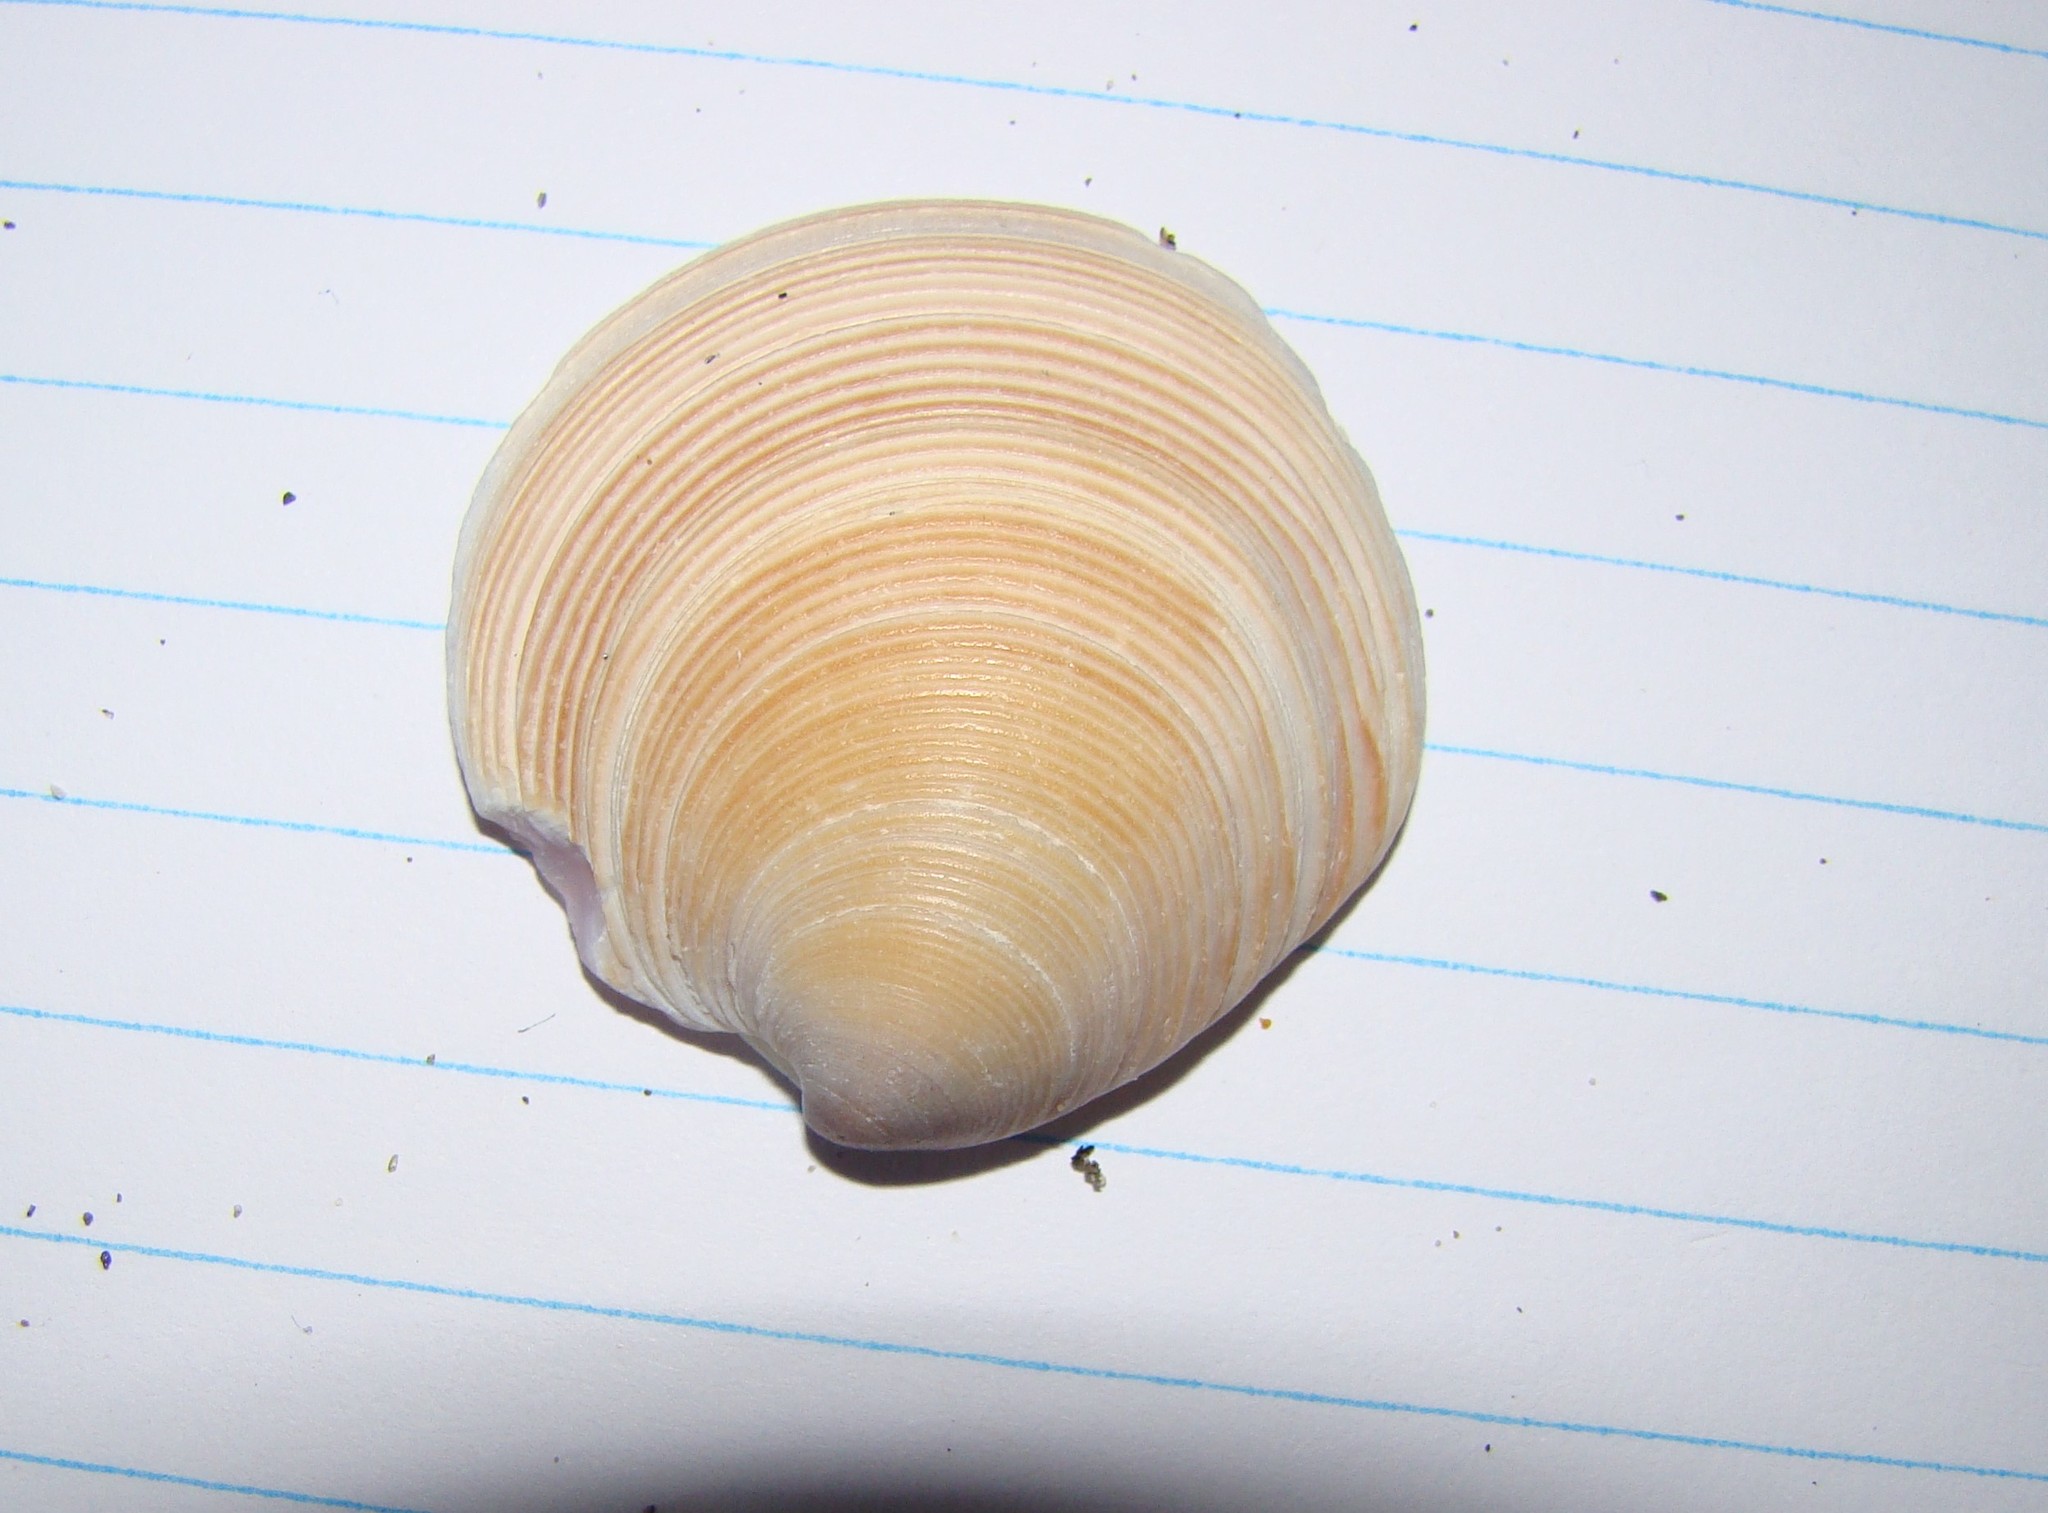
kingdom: Animalia
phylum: Mollusca
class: Bivalvia
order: Venerida
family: Veneridae
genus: Dosinia
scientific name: Dosinia anus
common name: Old-woman dosinia
